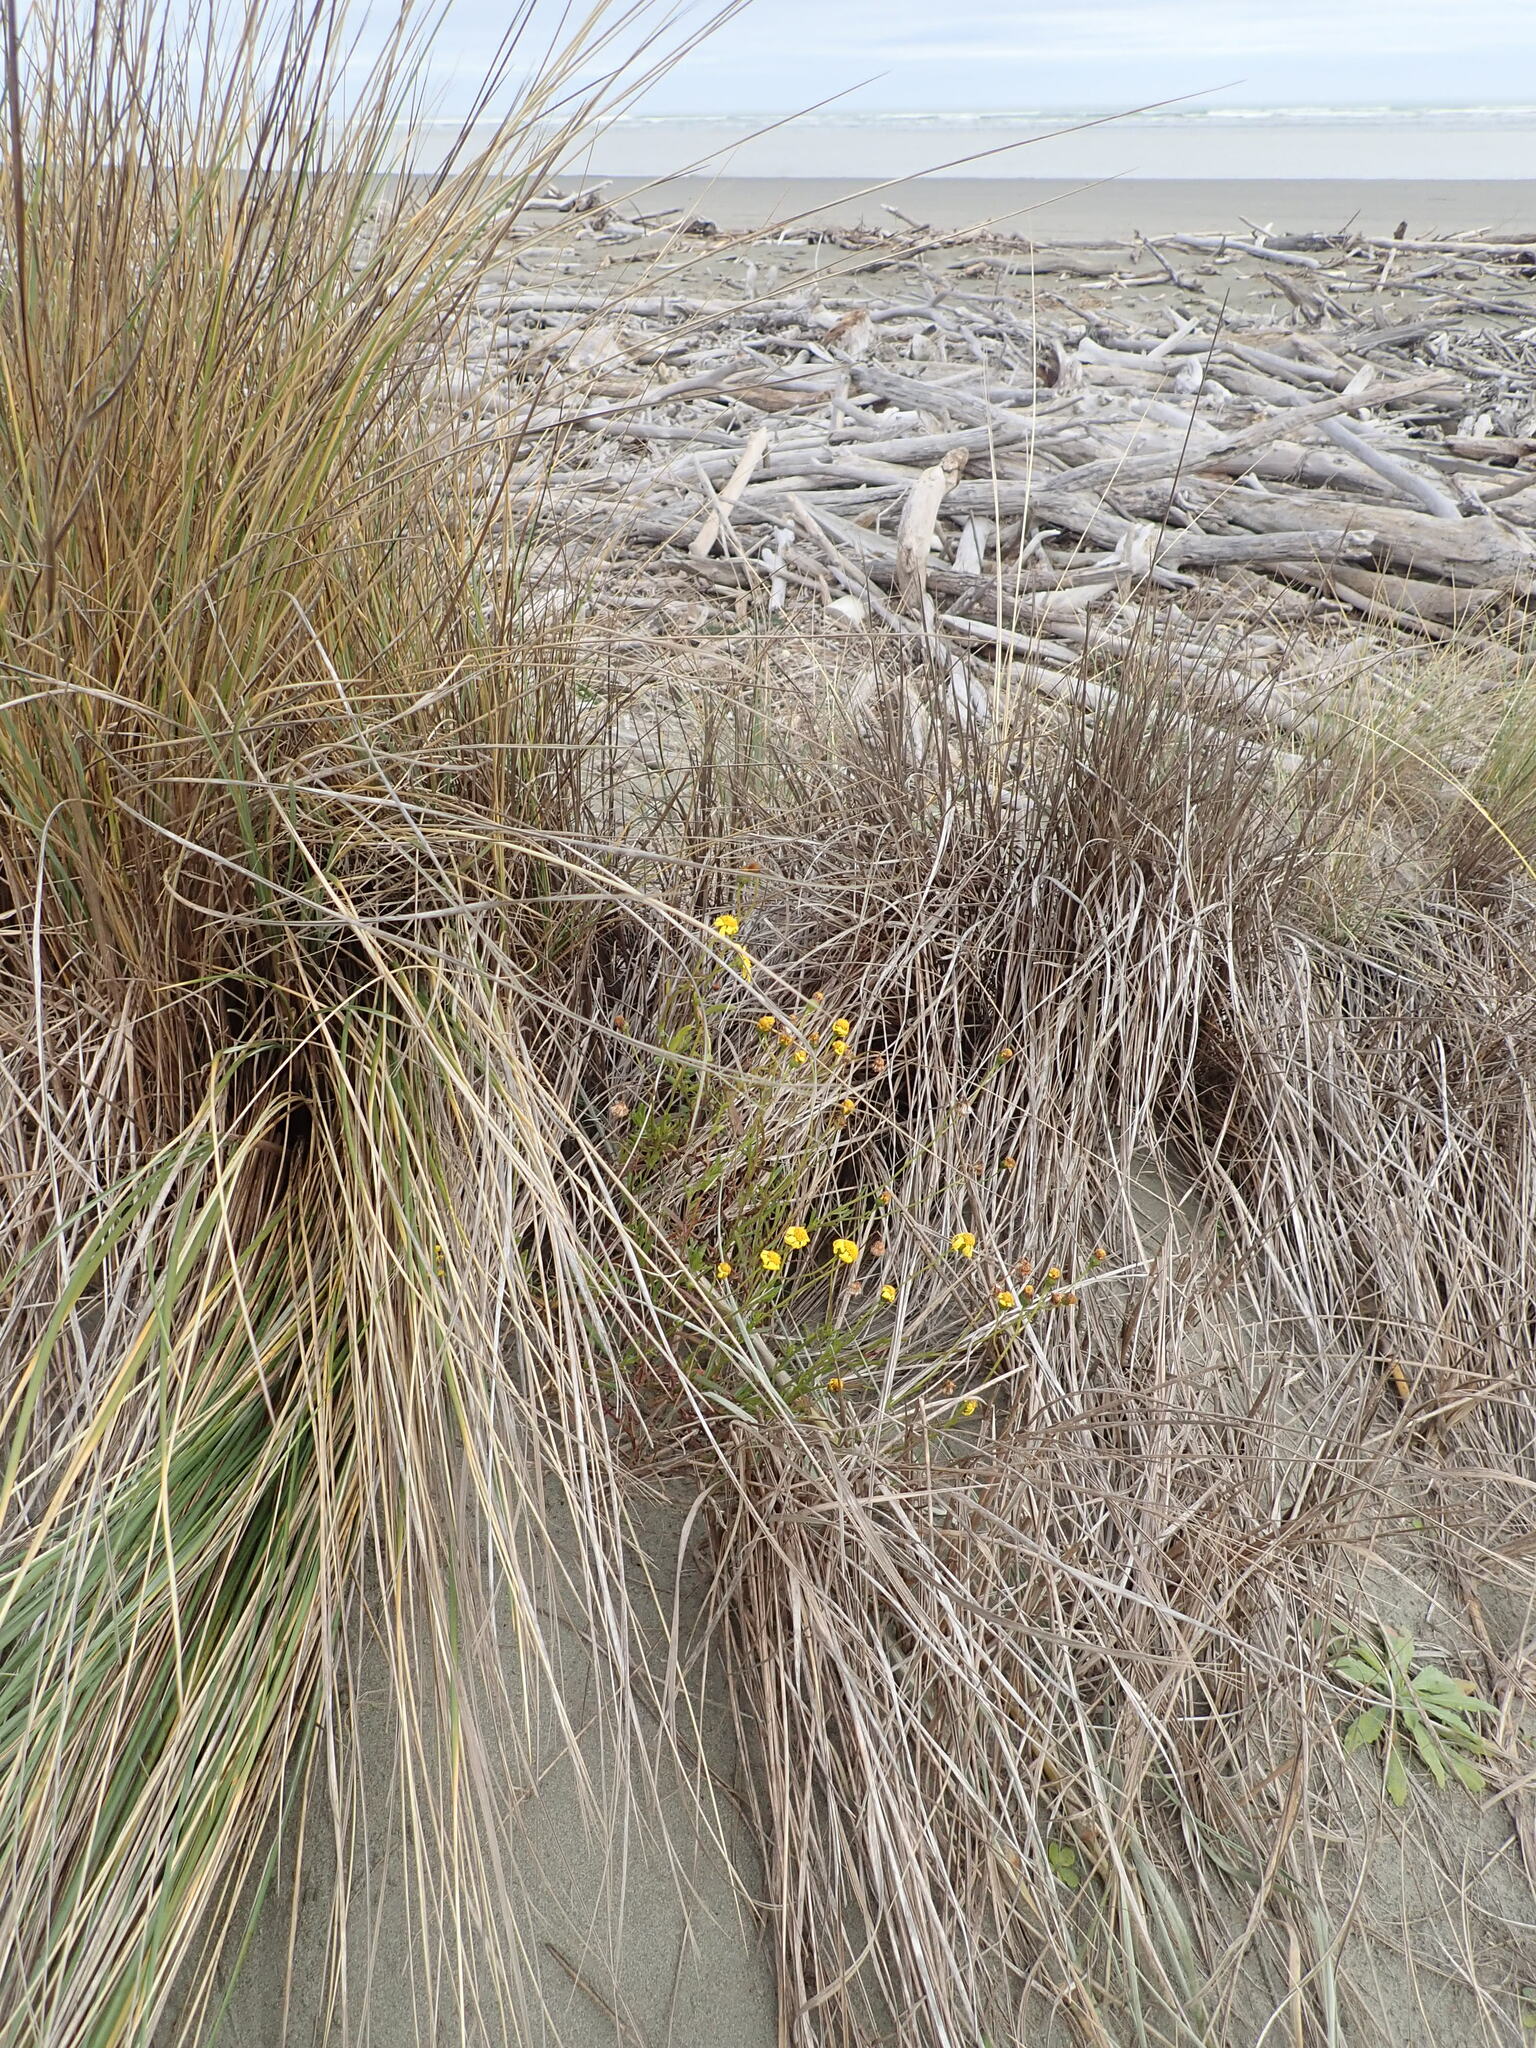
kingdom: Plantae
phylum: Tracheophyta
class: Magnoliopsida
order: Asterales
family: Asteraceae
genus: Senecio
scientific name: Senecio skirrhodon
